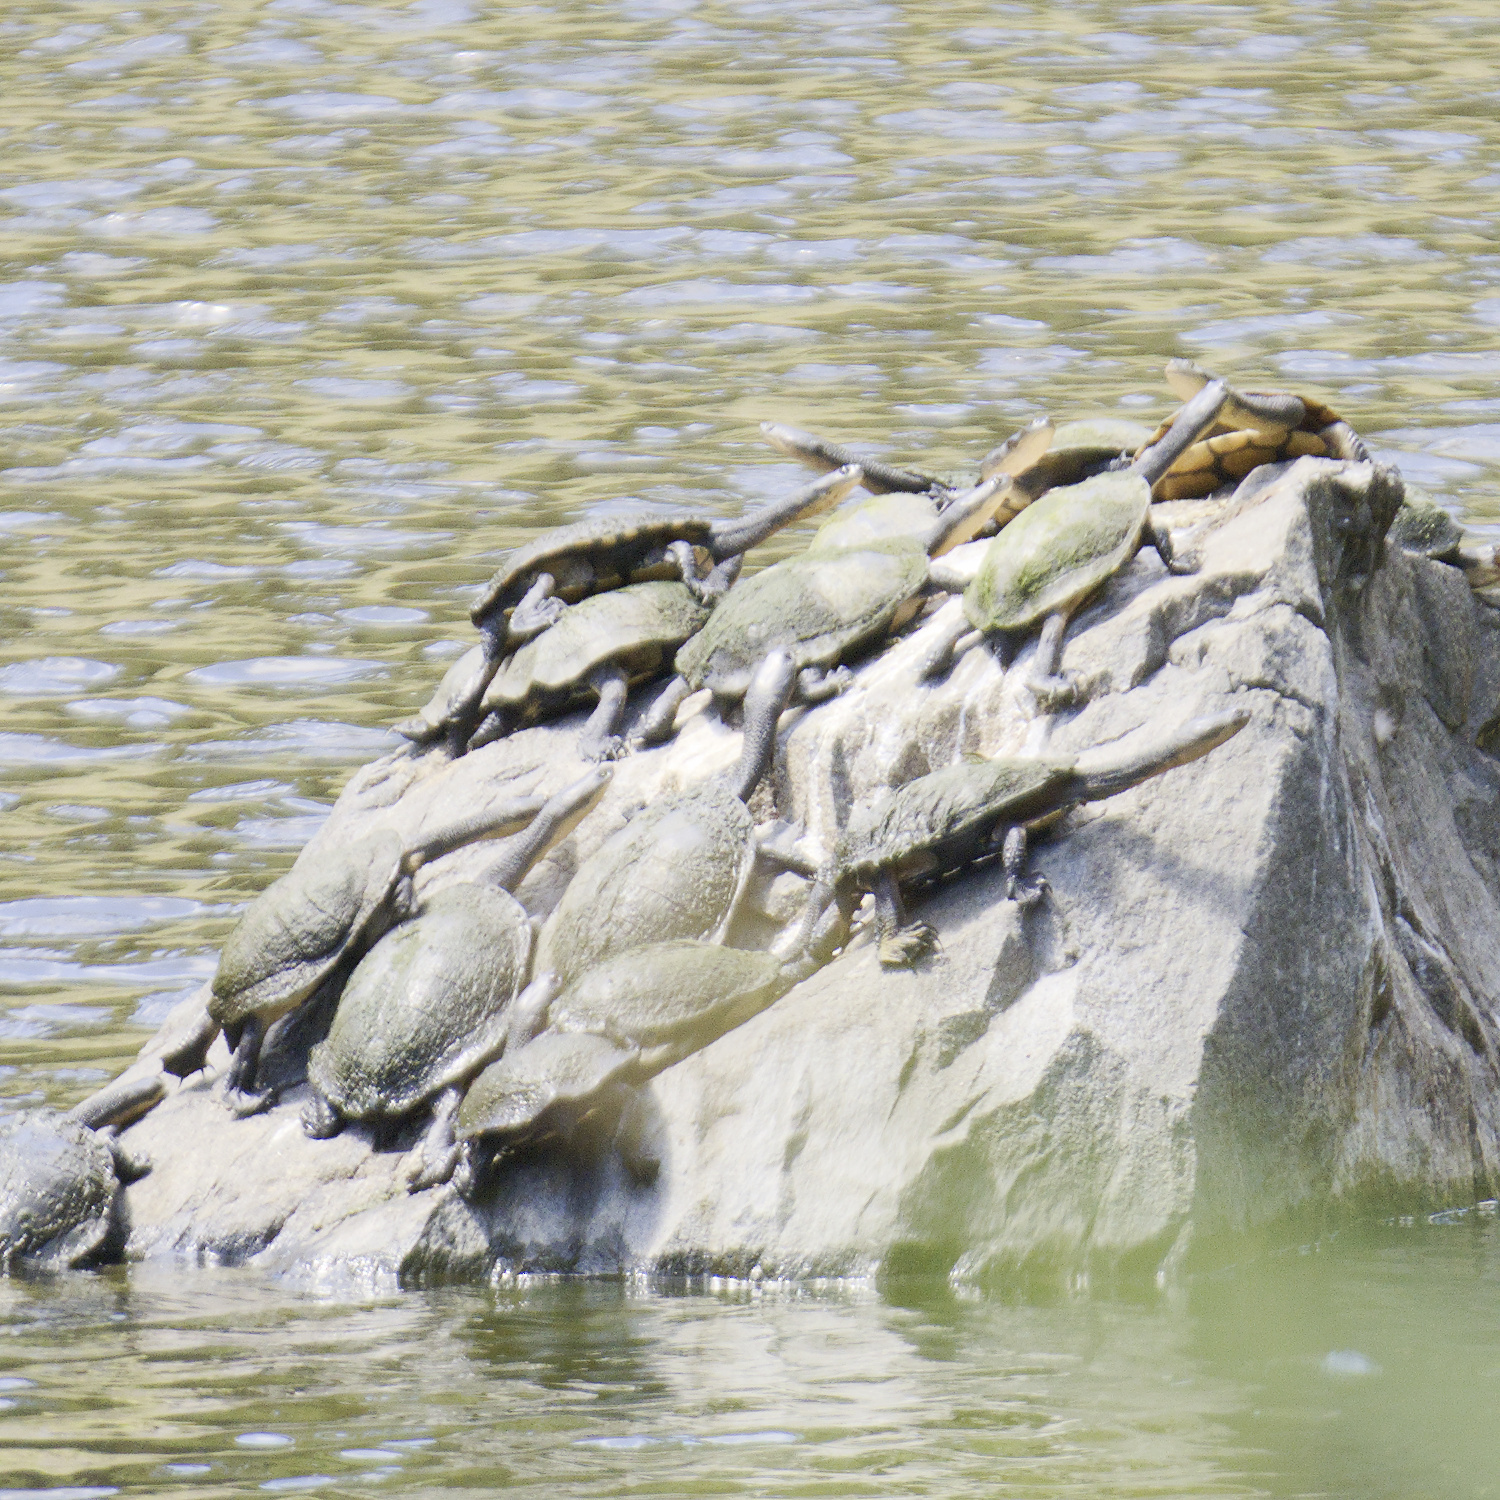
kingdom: Animalia
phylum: Chordata
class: Testudines
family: Chelidae
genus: Chelodina
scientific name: Chelodina longicollis
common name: Eastern snake-necked turtle
